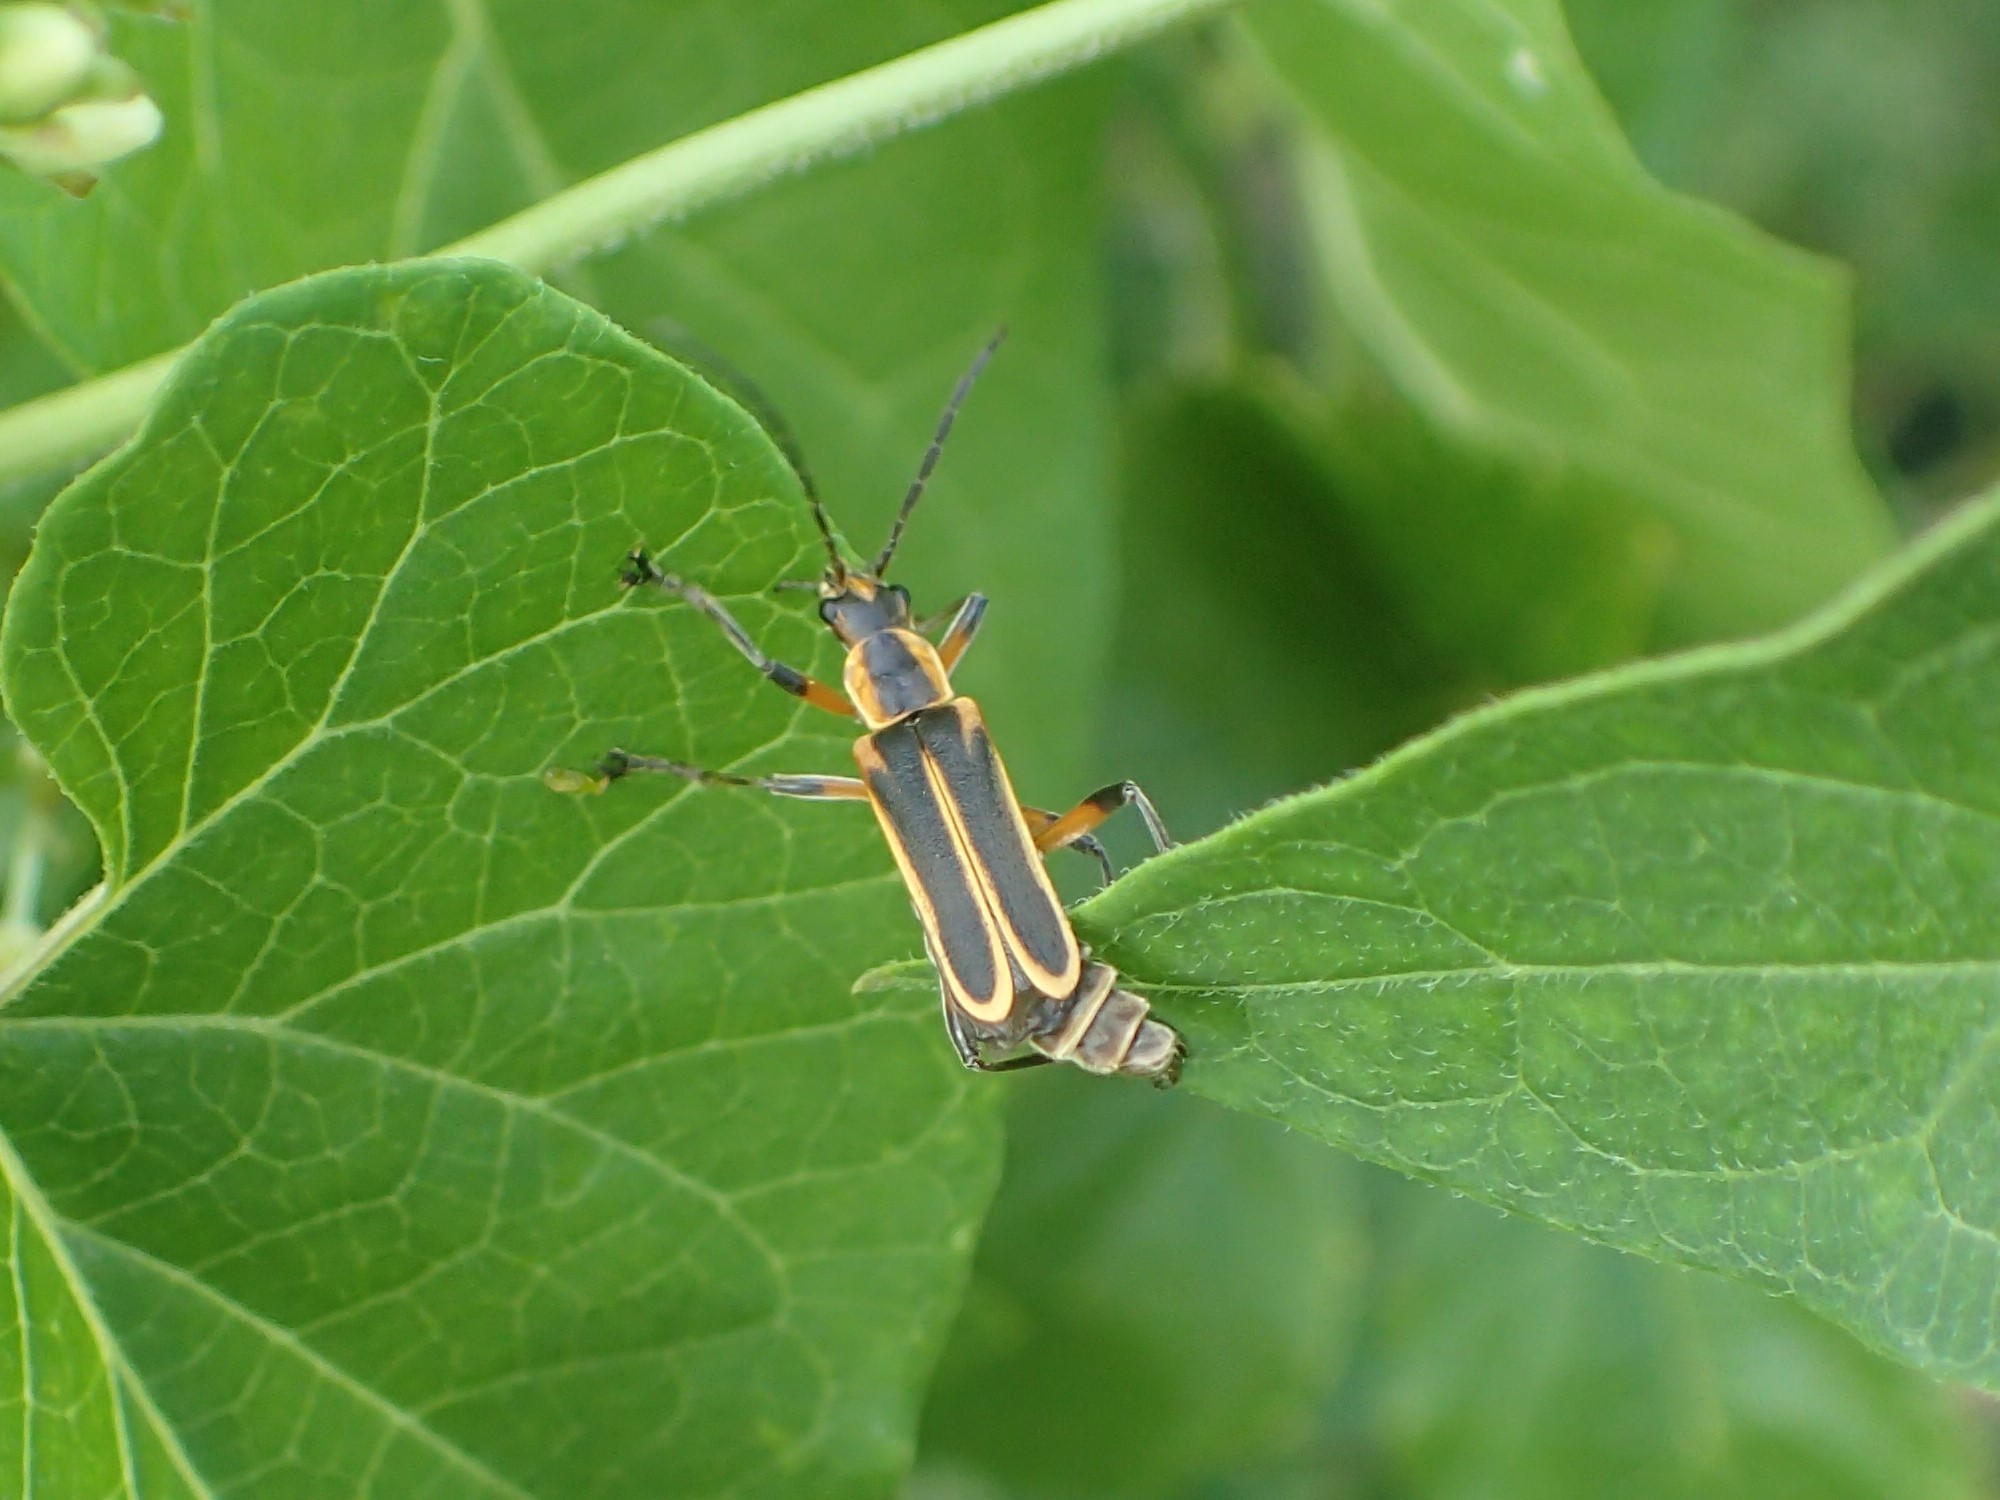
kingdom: Animalia
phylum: Arthropoda
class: Insecta
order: Coleoptera
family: Cantharidae
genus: Chauliognathus
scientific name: Chauliognathus marginatus
